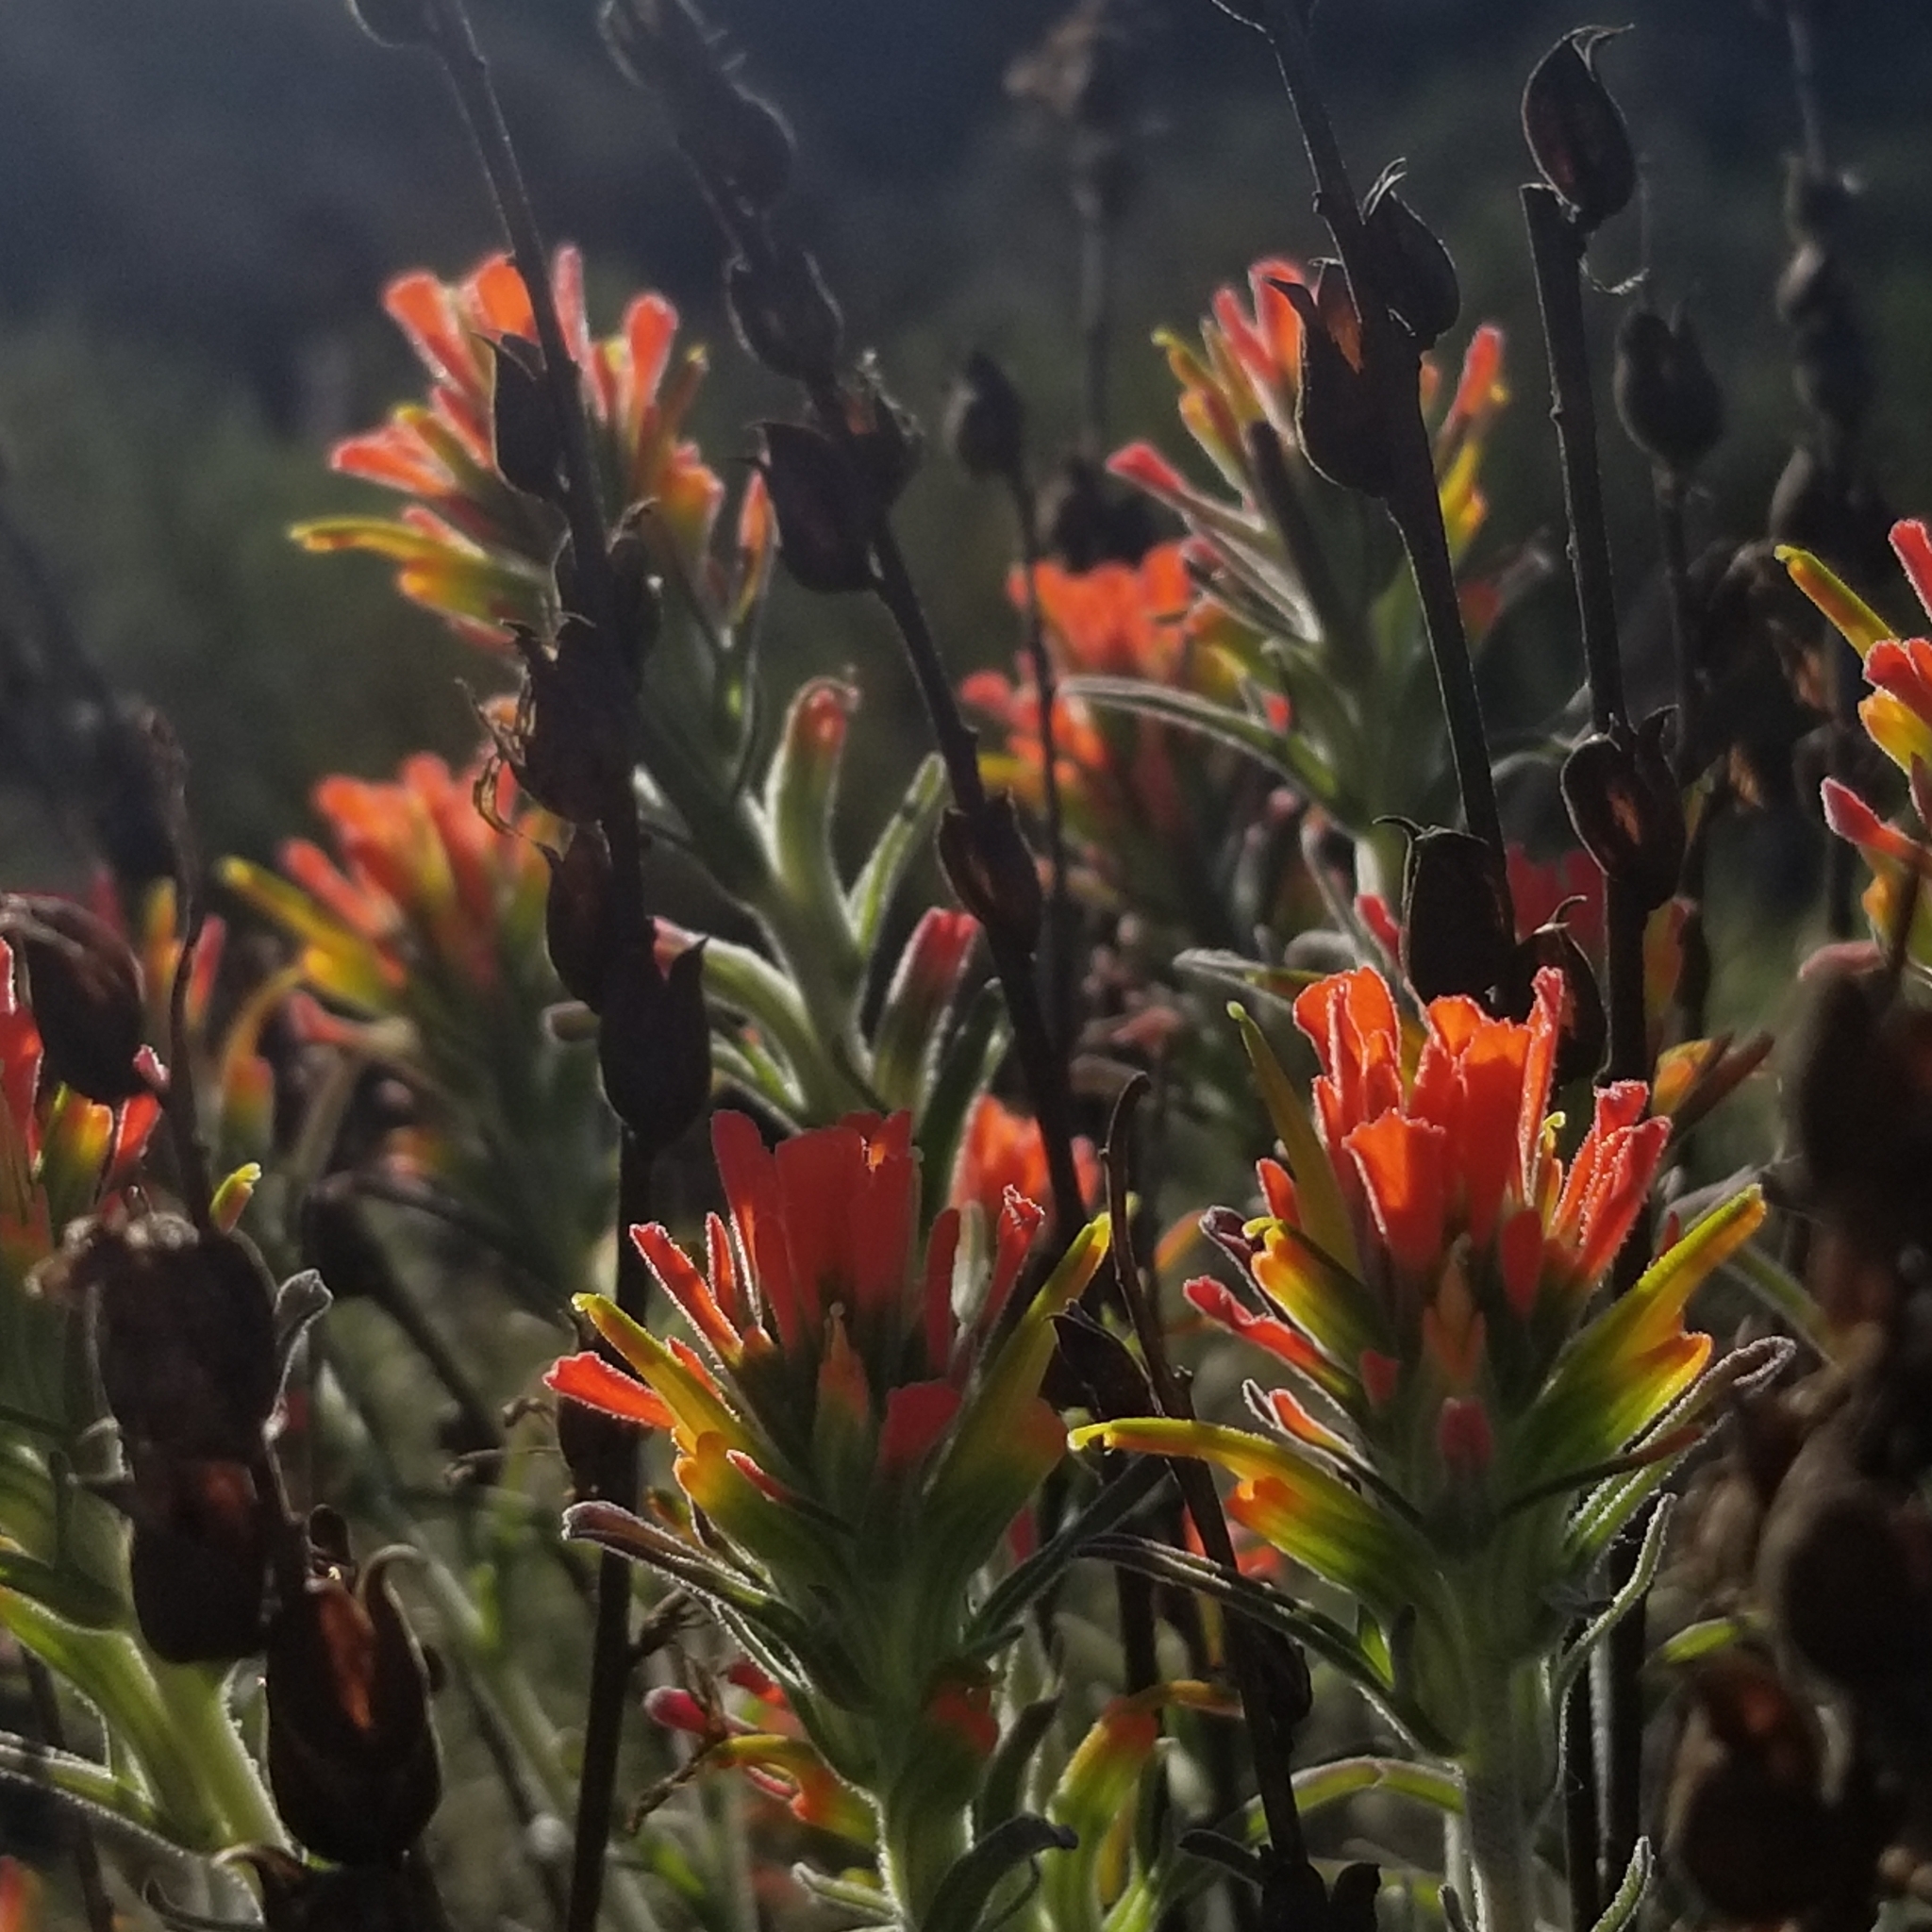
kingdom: Plantae
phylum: Tracheophyta
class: Magnoliopsida
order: Lamiales
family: Orobanchaceae
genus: Castilleja
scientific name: Castilleja foliolosa
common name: Woolly indian paintbrush
